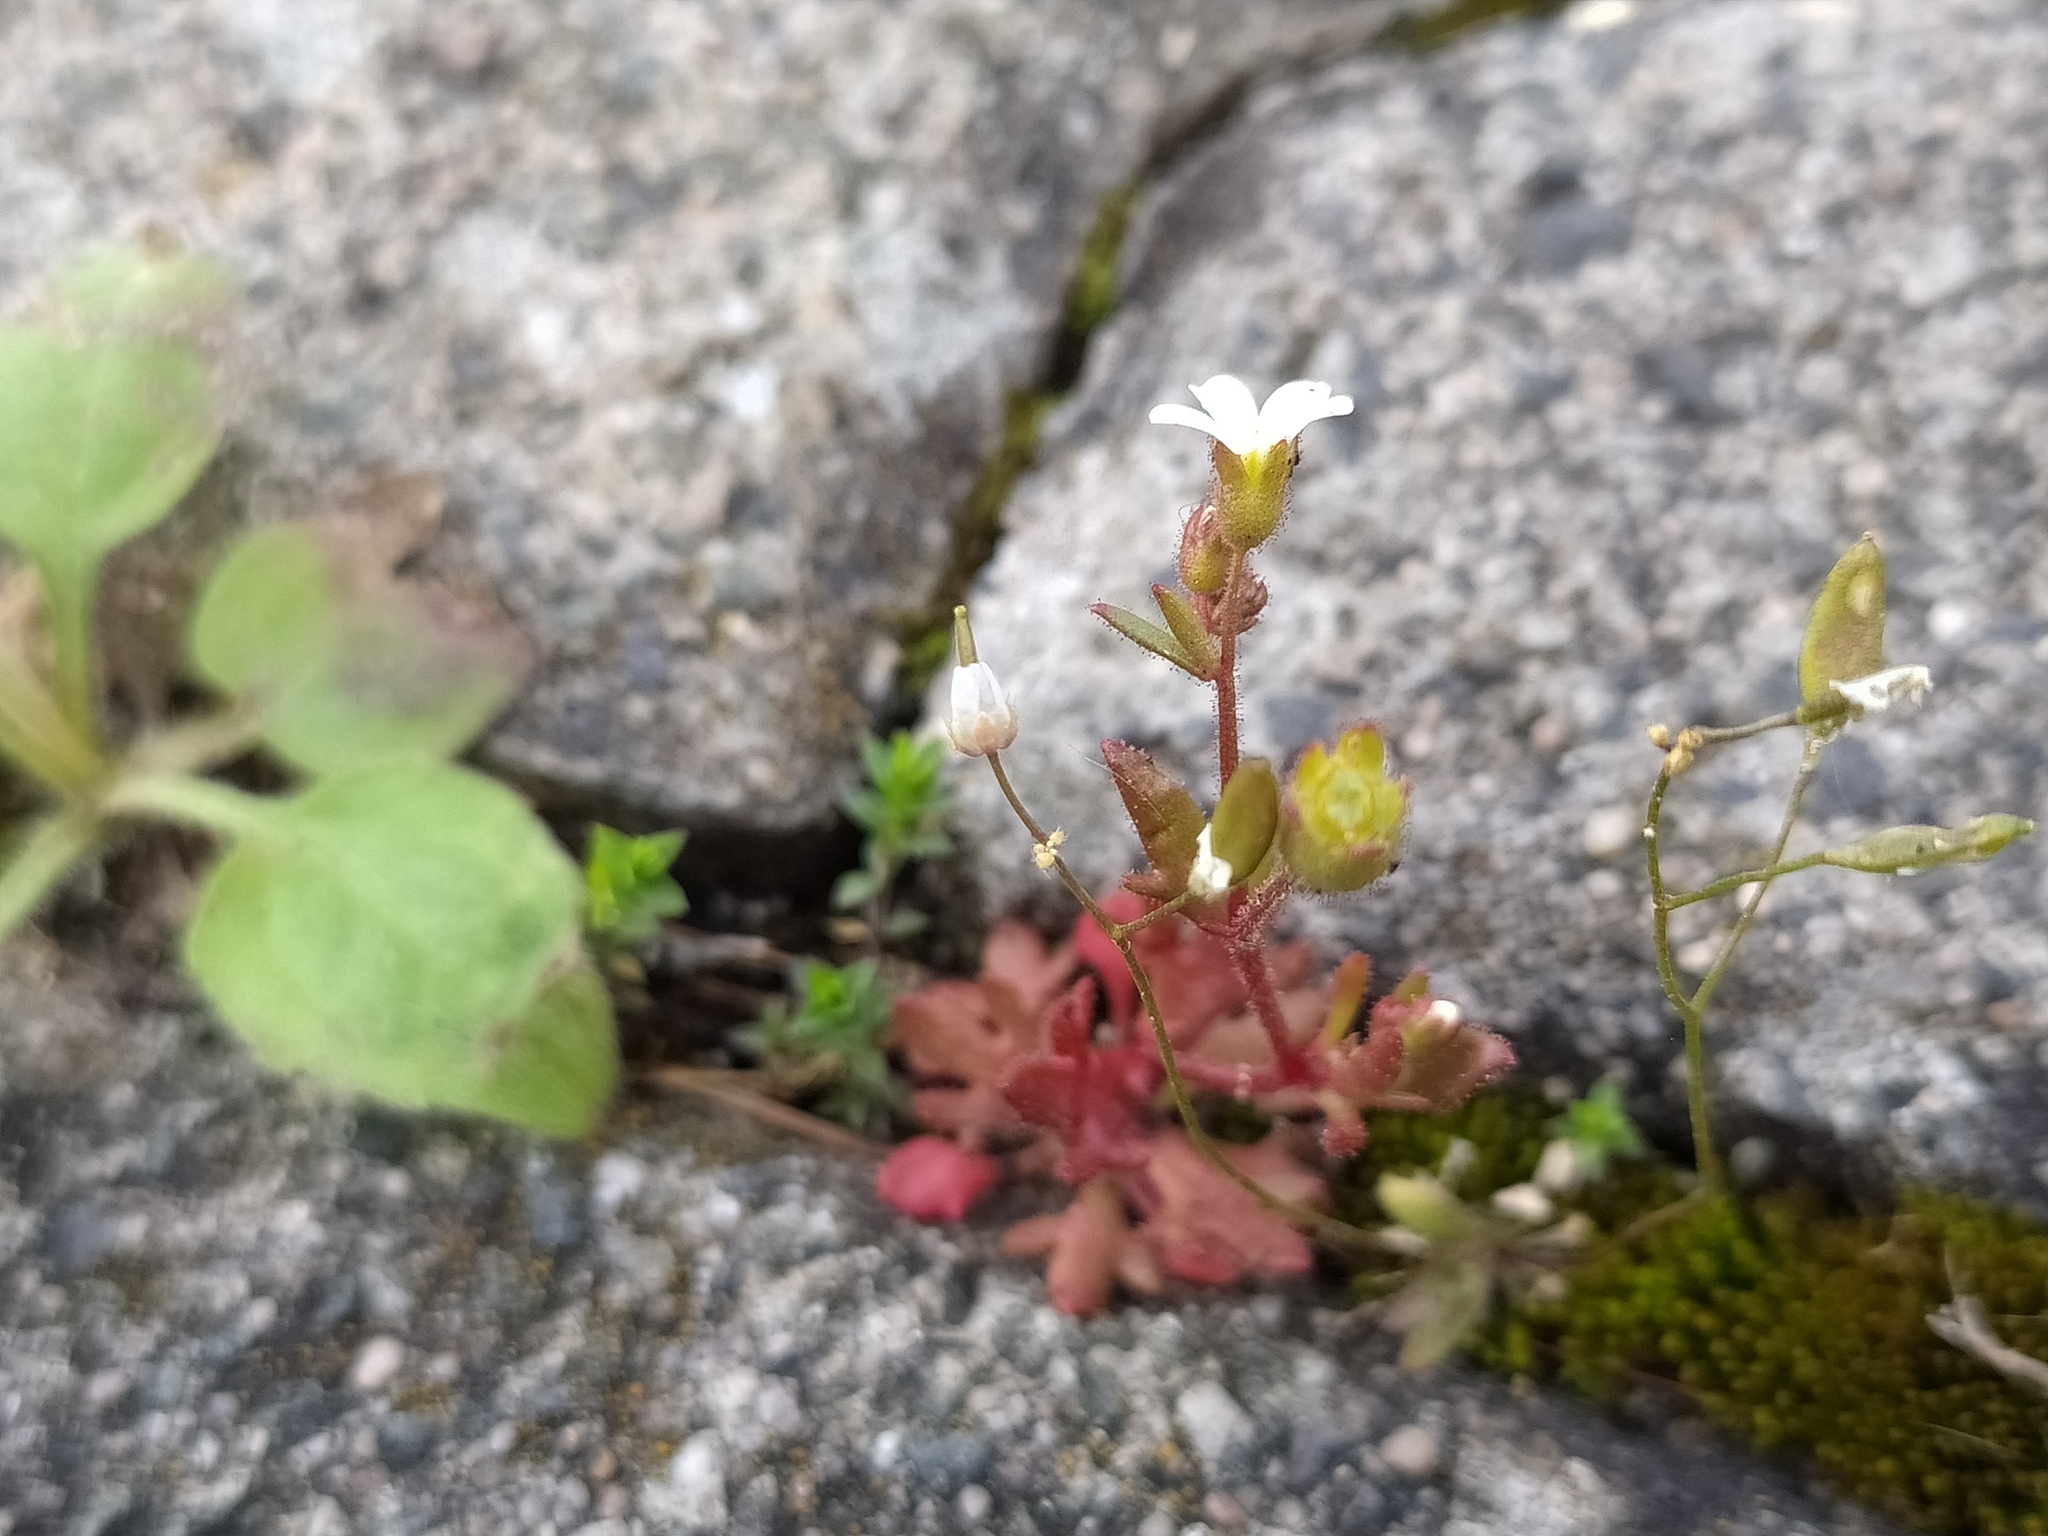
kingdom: Plantae
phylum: Tracheophyta
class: Magnoliopsida
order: Saxifragales
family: Saxifragaceae
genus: Saxifraga
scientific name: Saxifraga tridactylites
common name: Rue-leaved saxifrage
